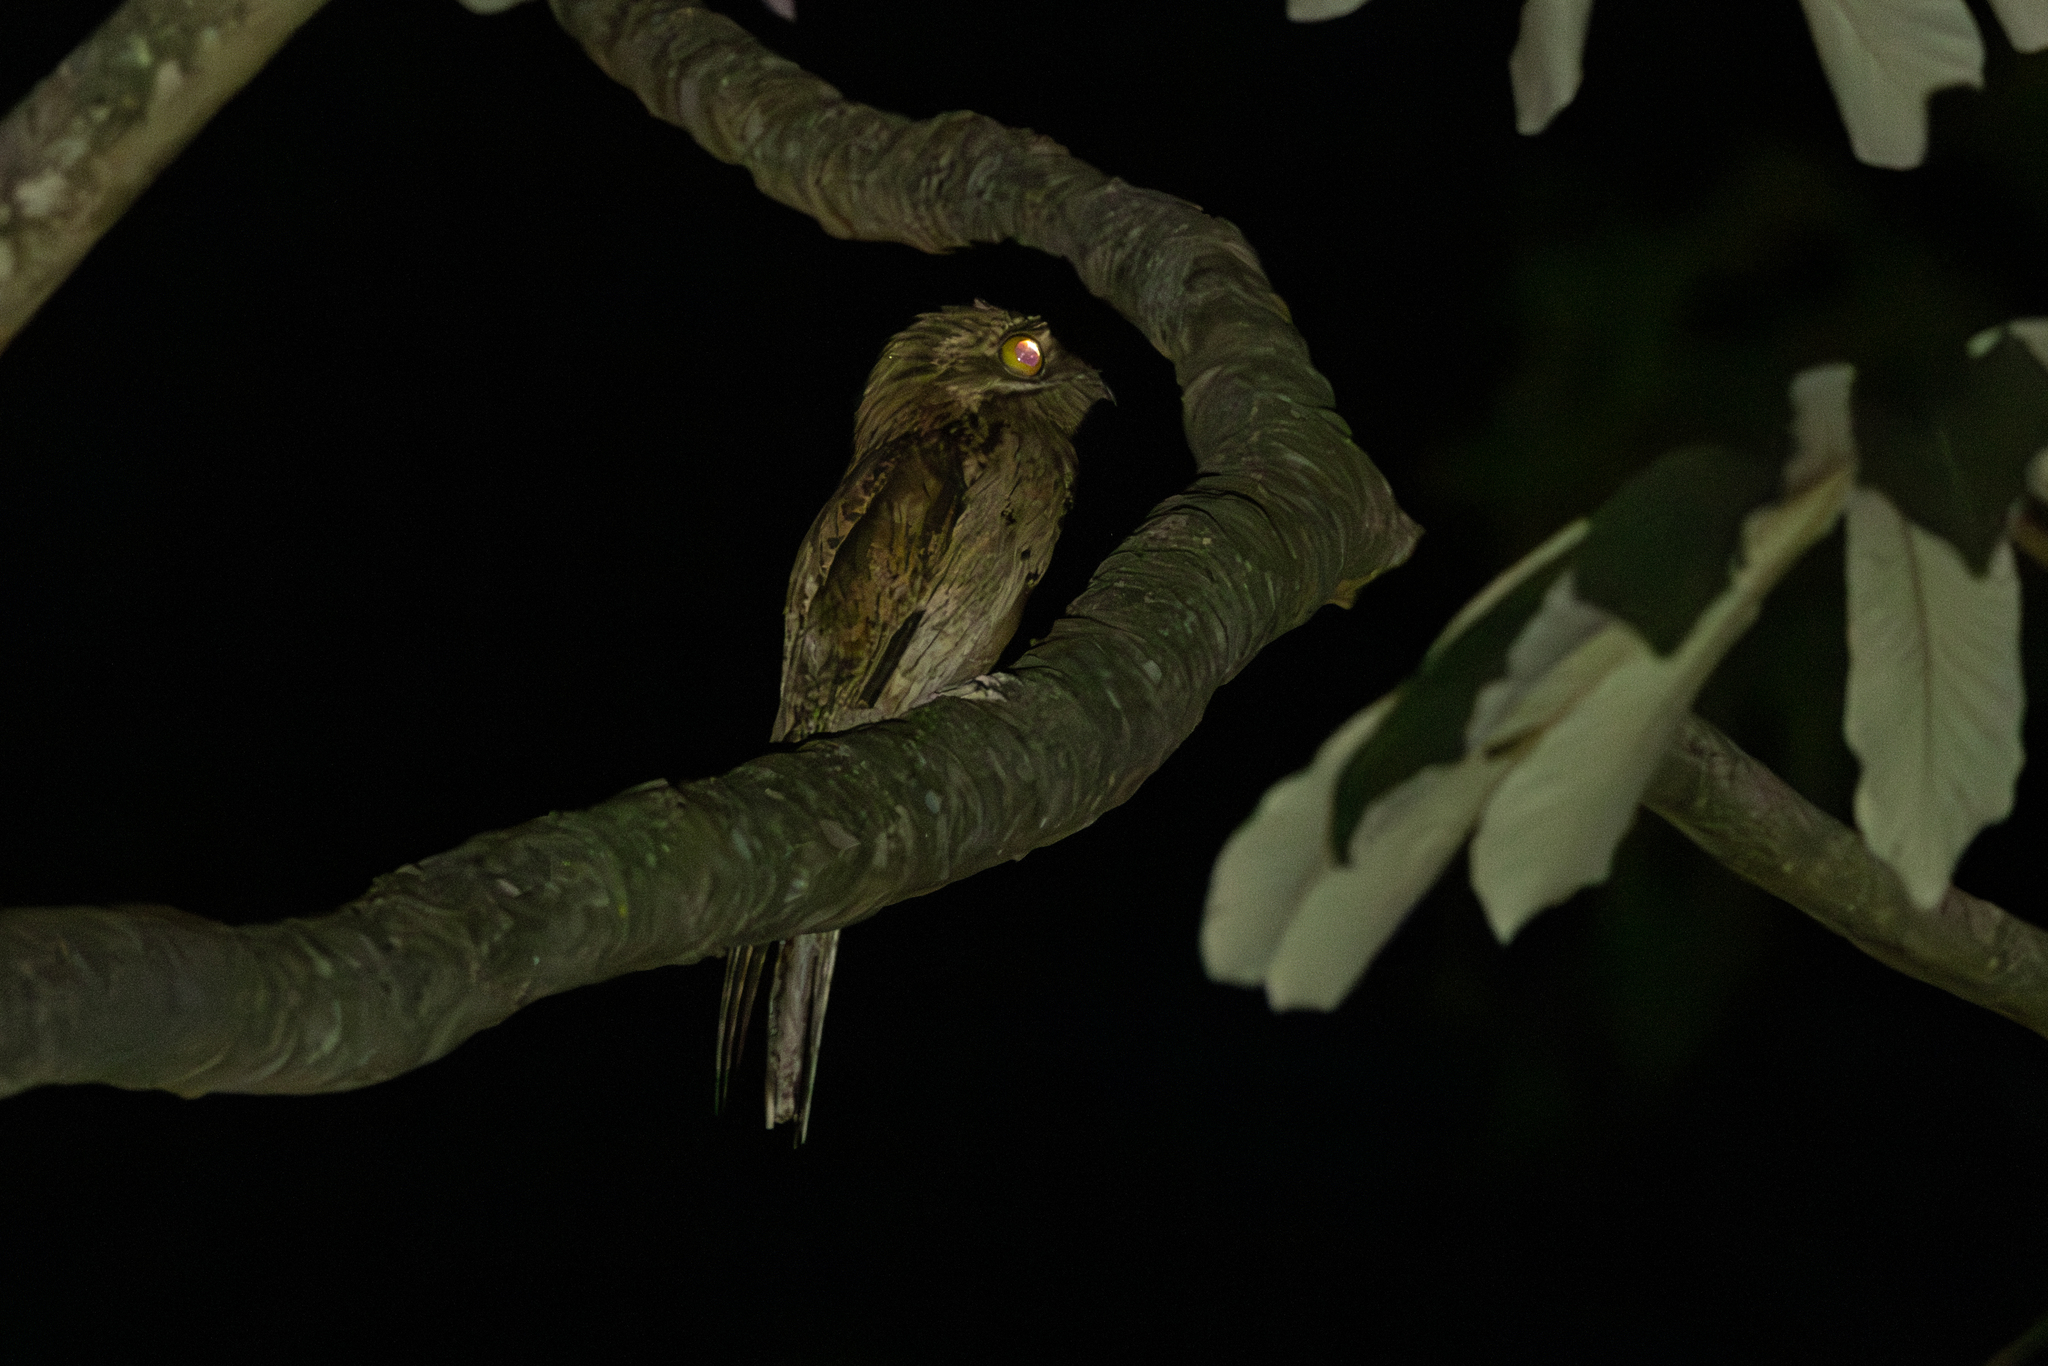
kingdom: Animalia
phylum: Chordata
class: Aves
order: Nyctibiiformes
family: Nyctibiidae
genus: Nyctibius
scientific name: Nyctibius jamaicensis
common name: Northern potoo
